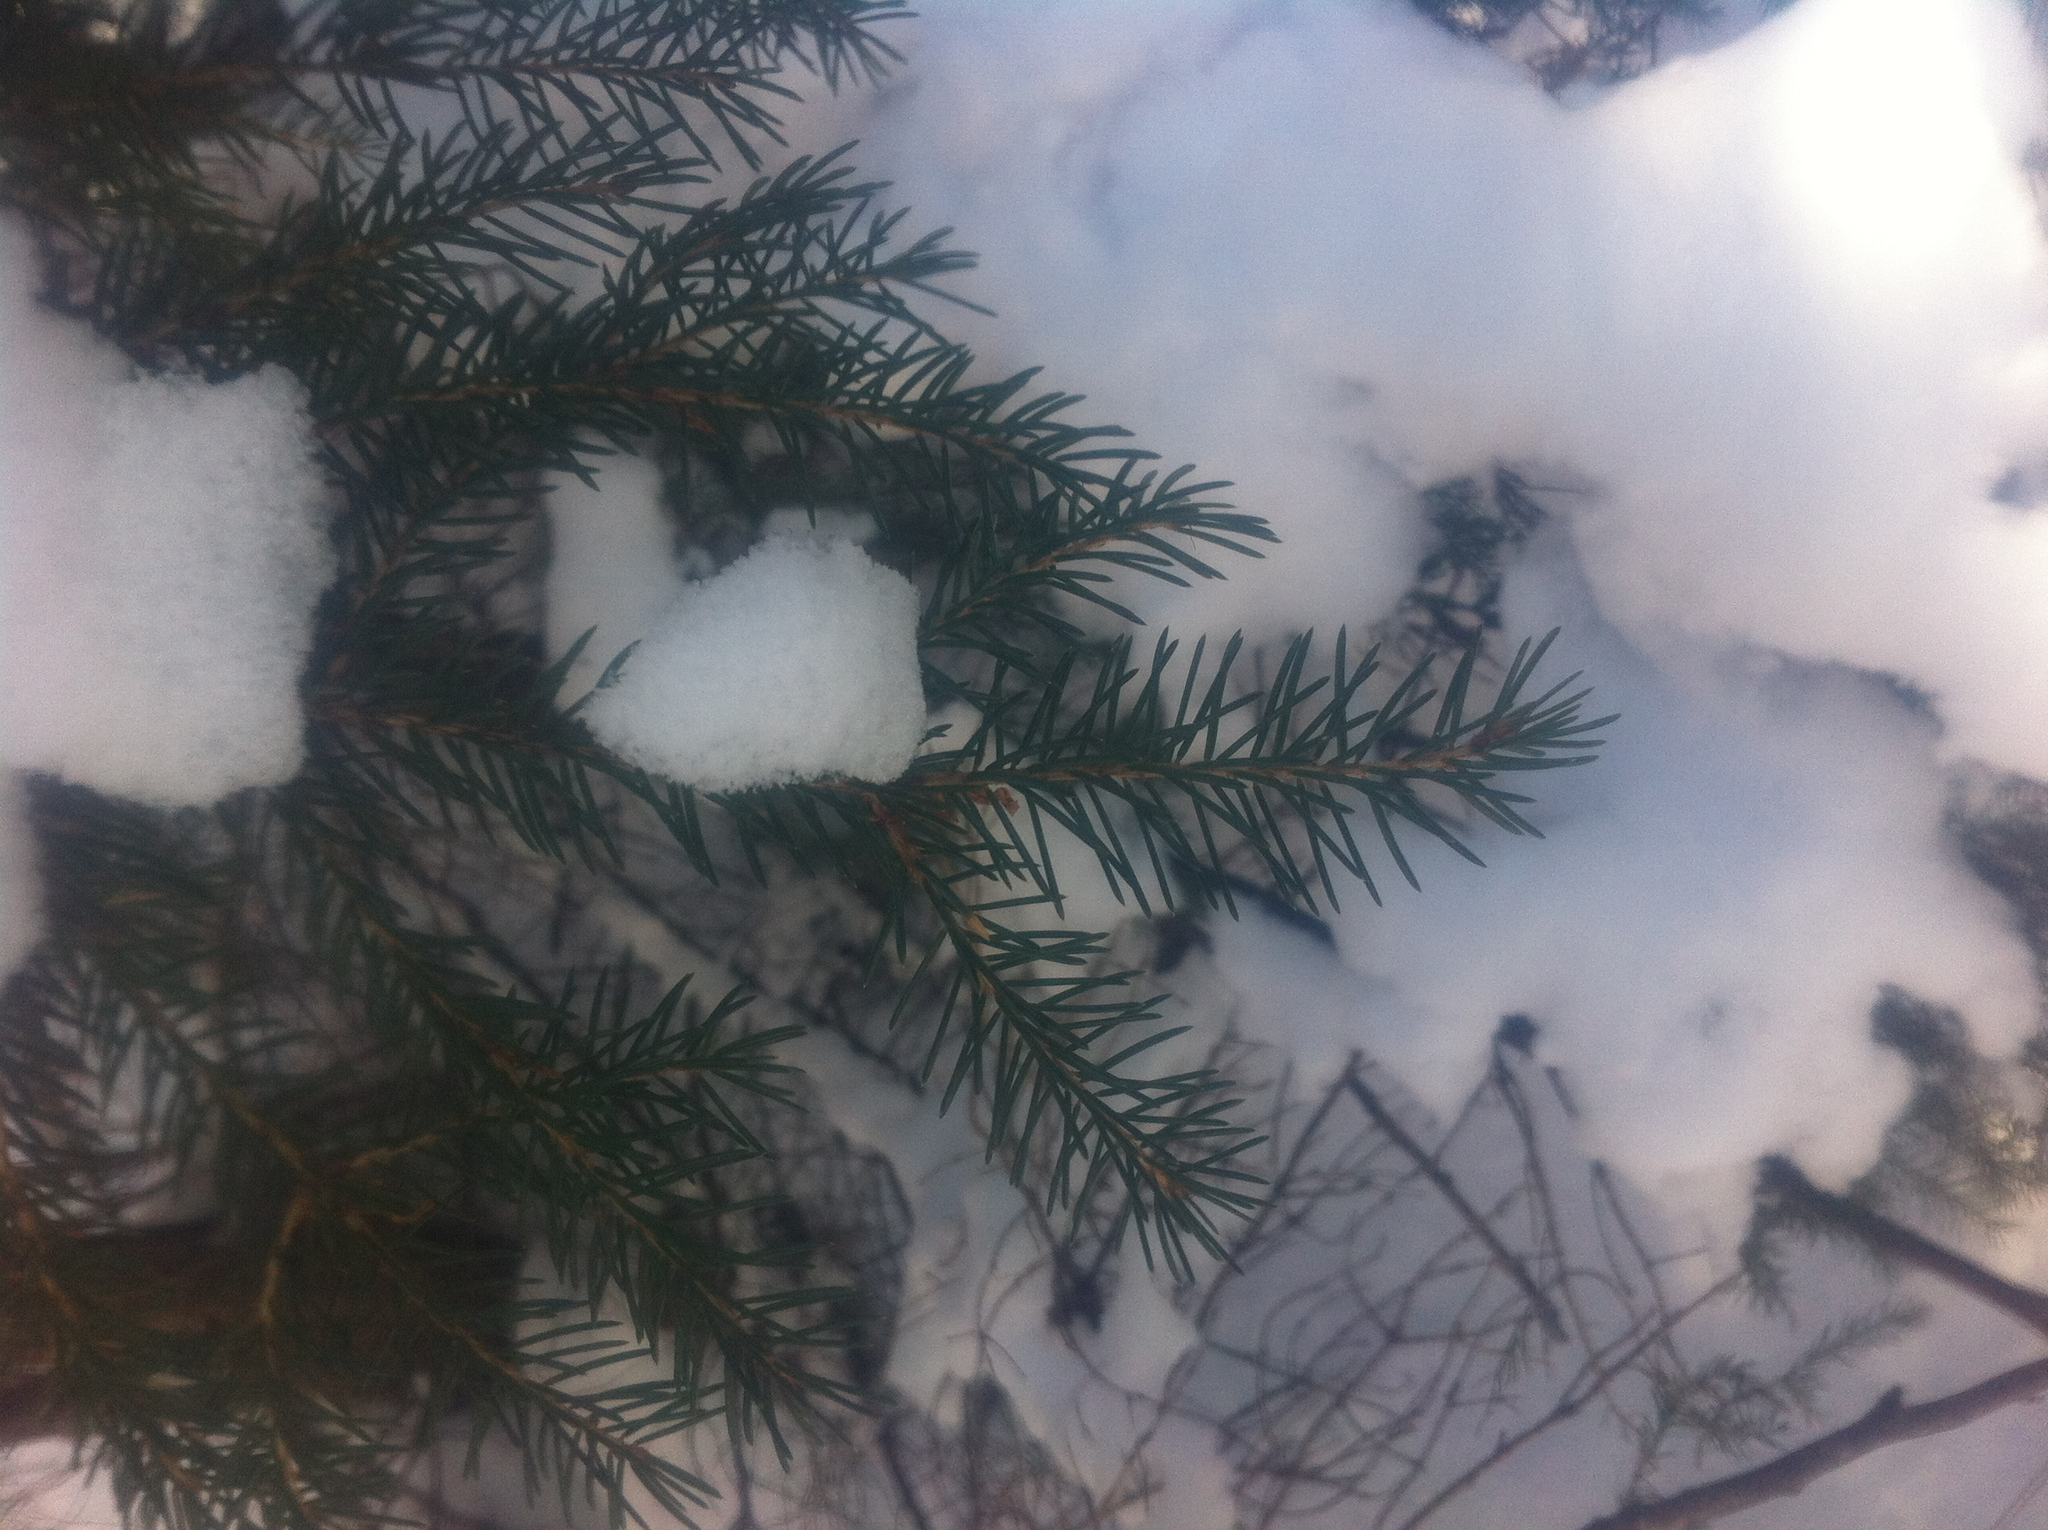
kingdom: Plantae
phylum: Tracheophyta
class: Pinopsida
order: Pinales
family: Pinaceae
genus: Picea
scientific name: Picea rubens
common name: Red spruce
